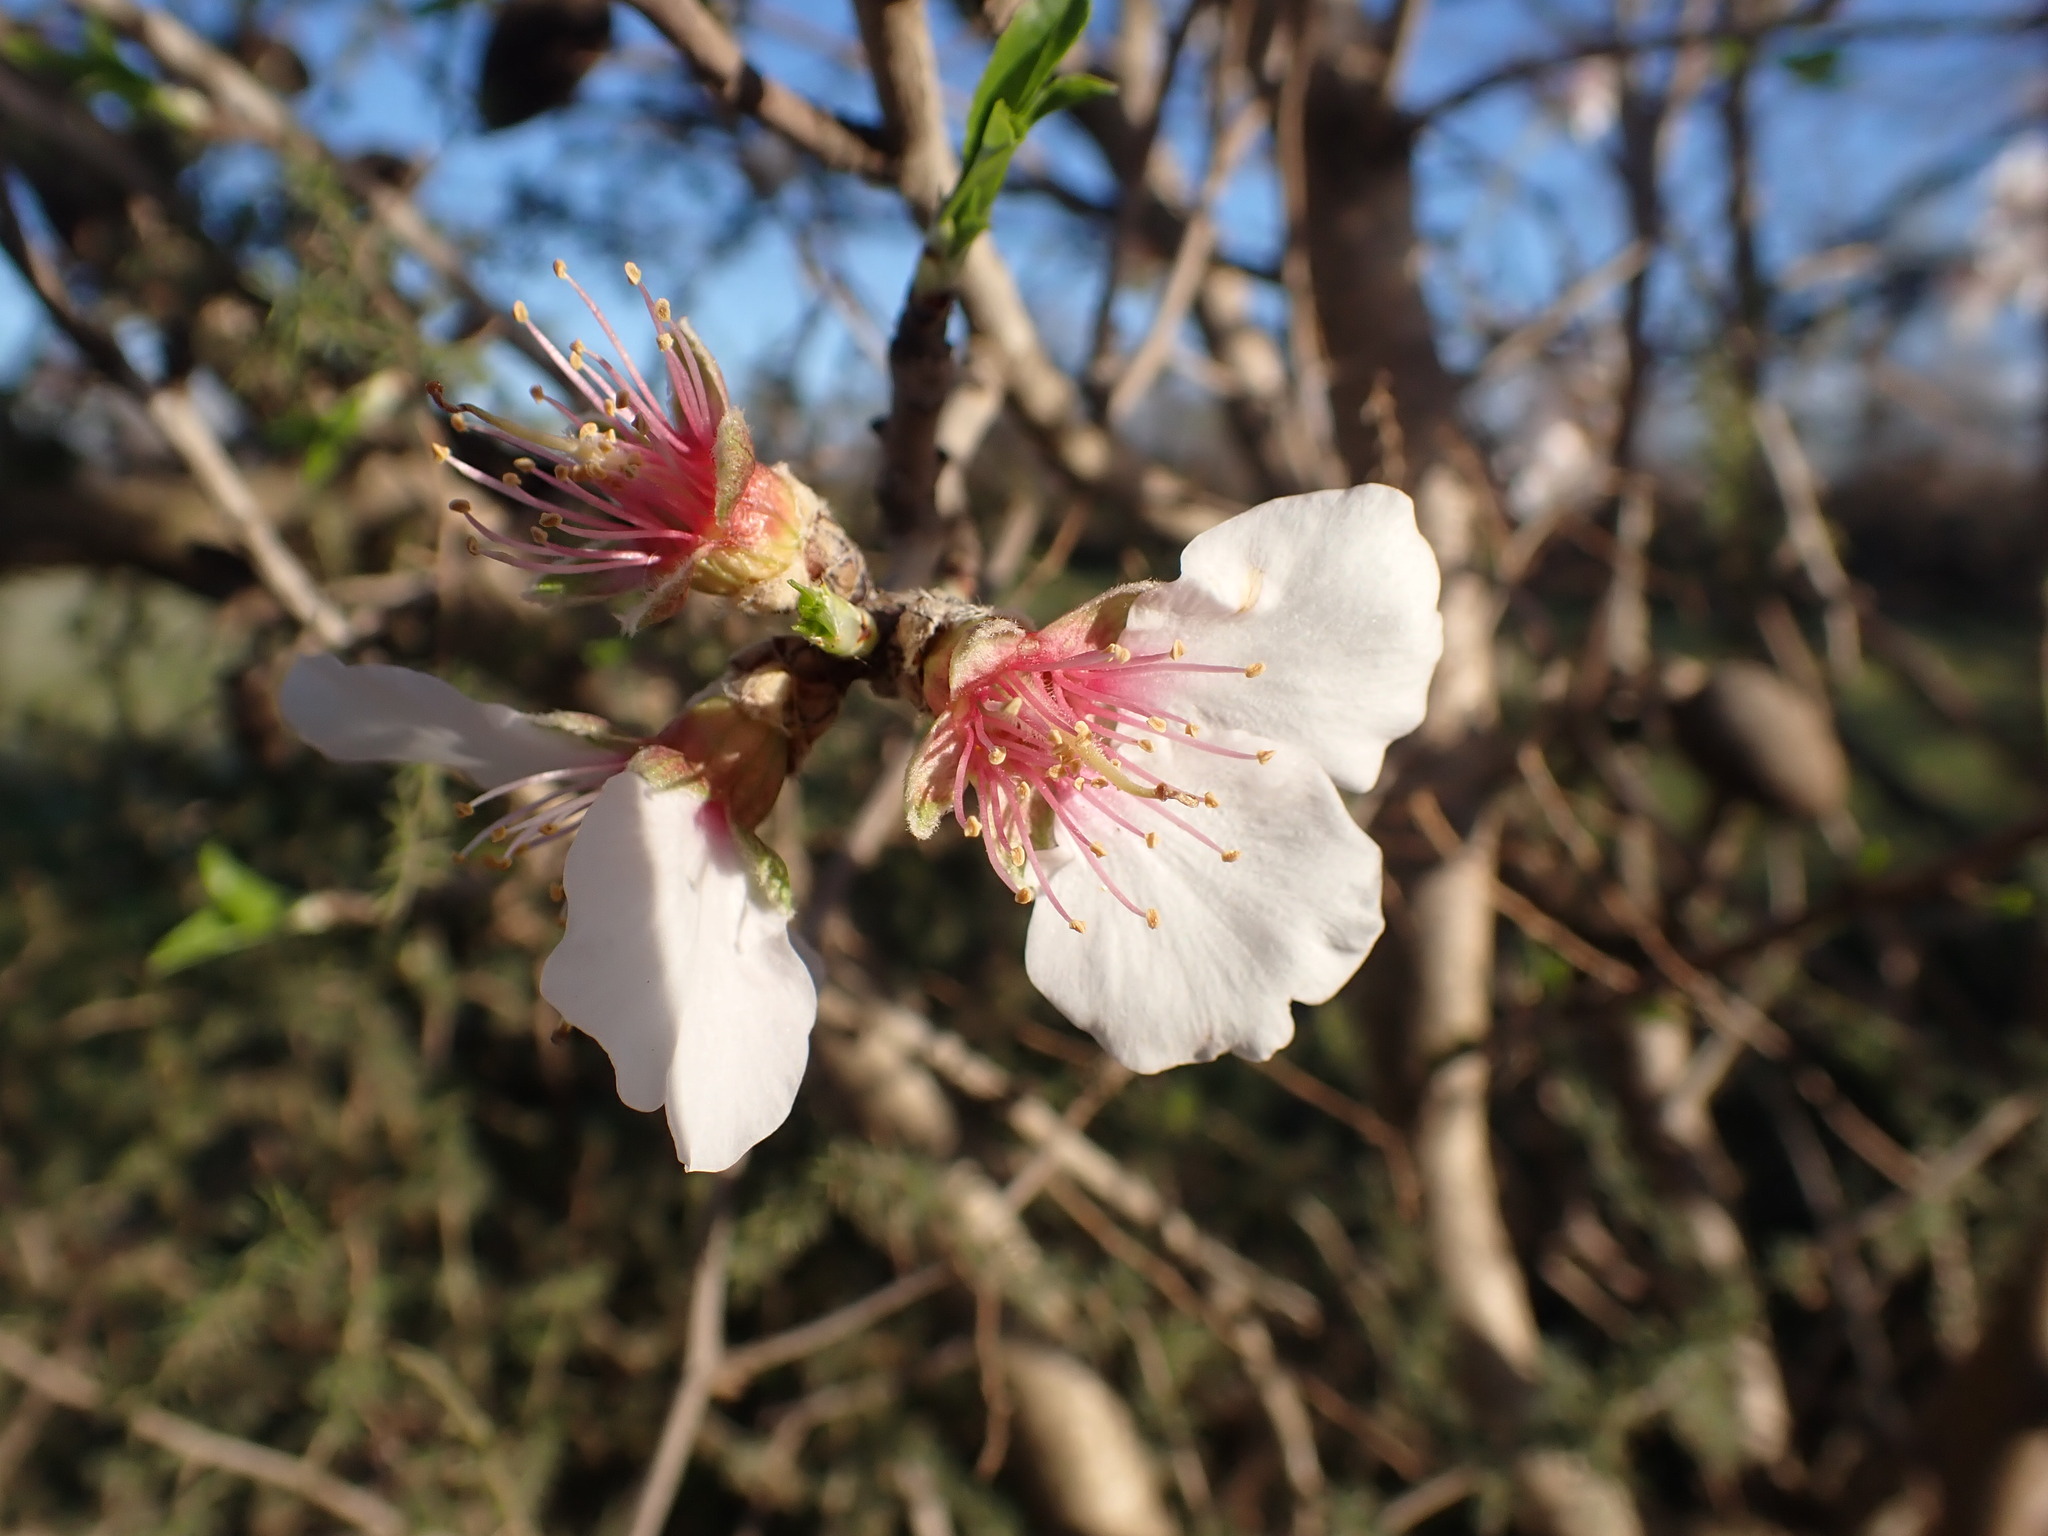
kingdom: Plantae
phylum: Tracheophyta
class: Magnoliopsida
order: Rosales
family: Rosaceae
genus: Prunus
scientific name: Prunus amygdalus
